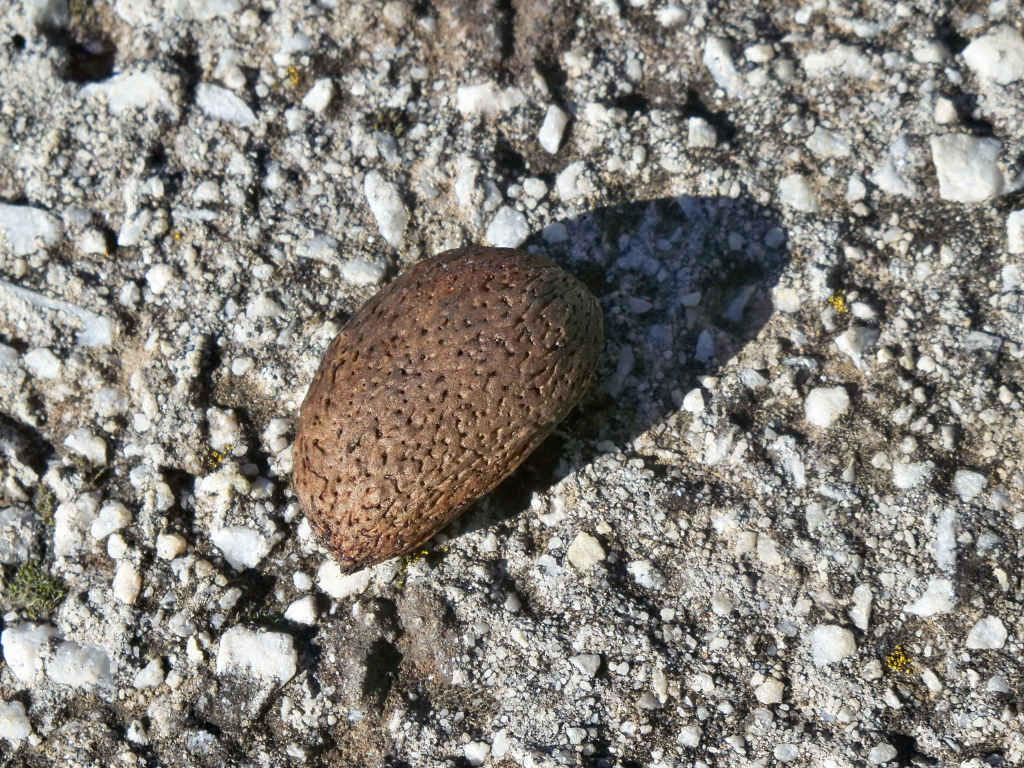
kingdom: Plantae
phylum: Tracheophyta
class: Magnoliopsida
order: Rosales
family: Rosaceae
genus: Prunus
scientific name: Prunus amygdalus
